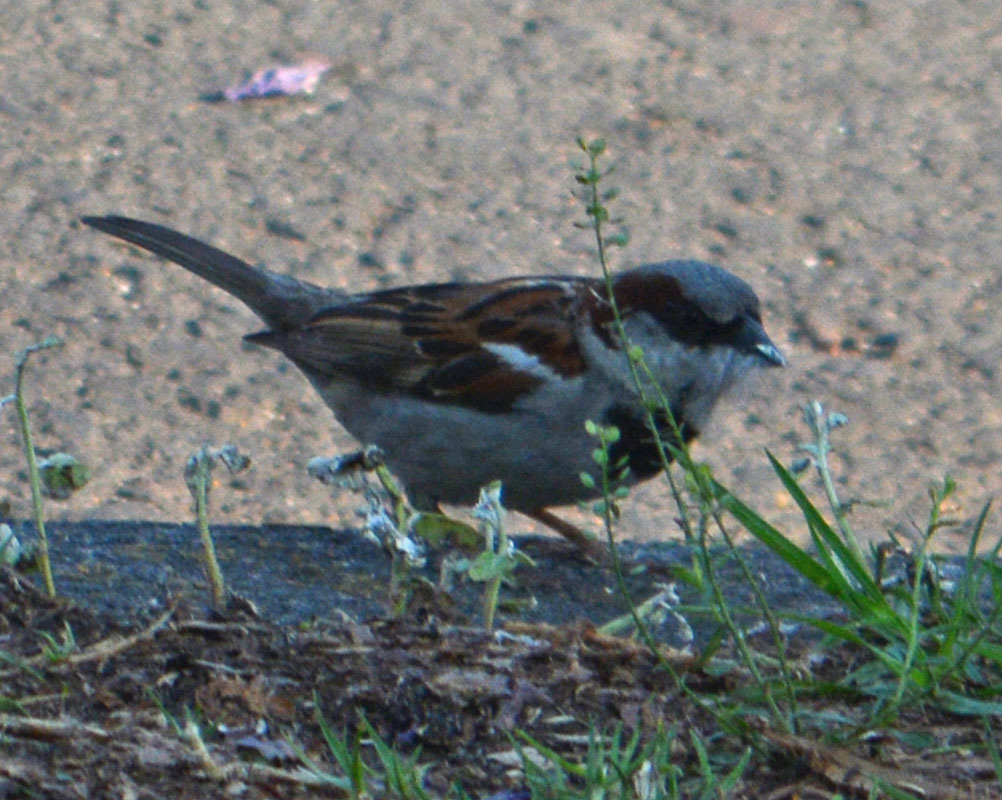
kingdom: Animalia
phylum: Chordata
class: Aves
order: Passeriformes
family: Passeridae
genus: Passer
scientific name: Passer domesticus
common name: House sparrow
